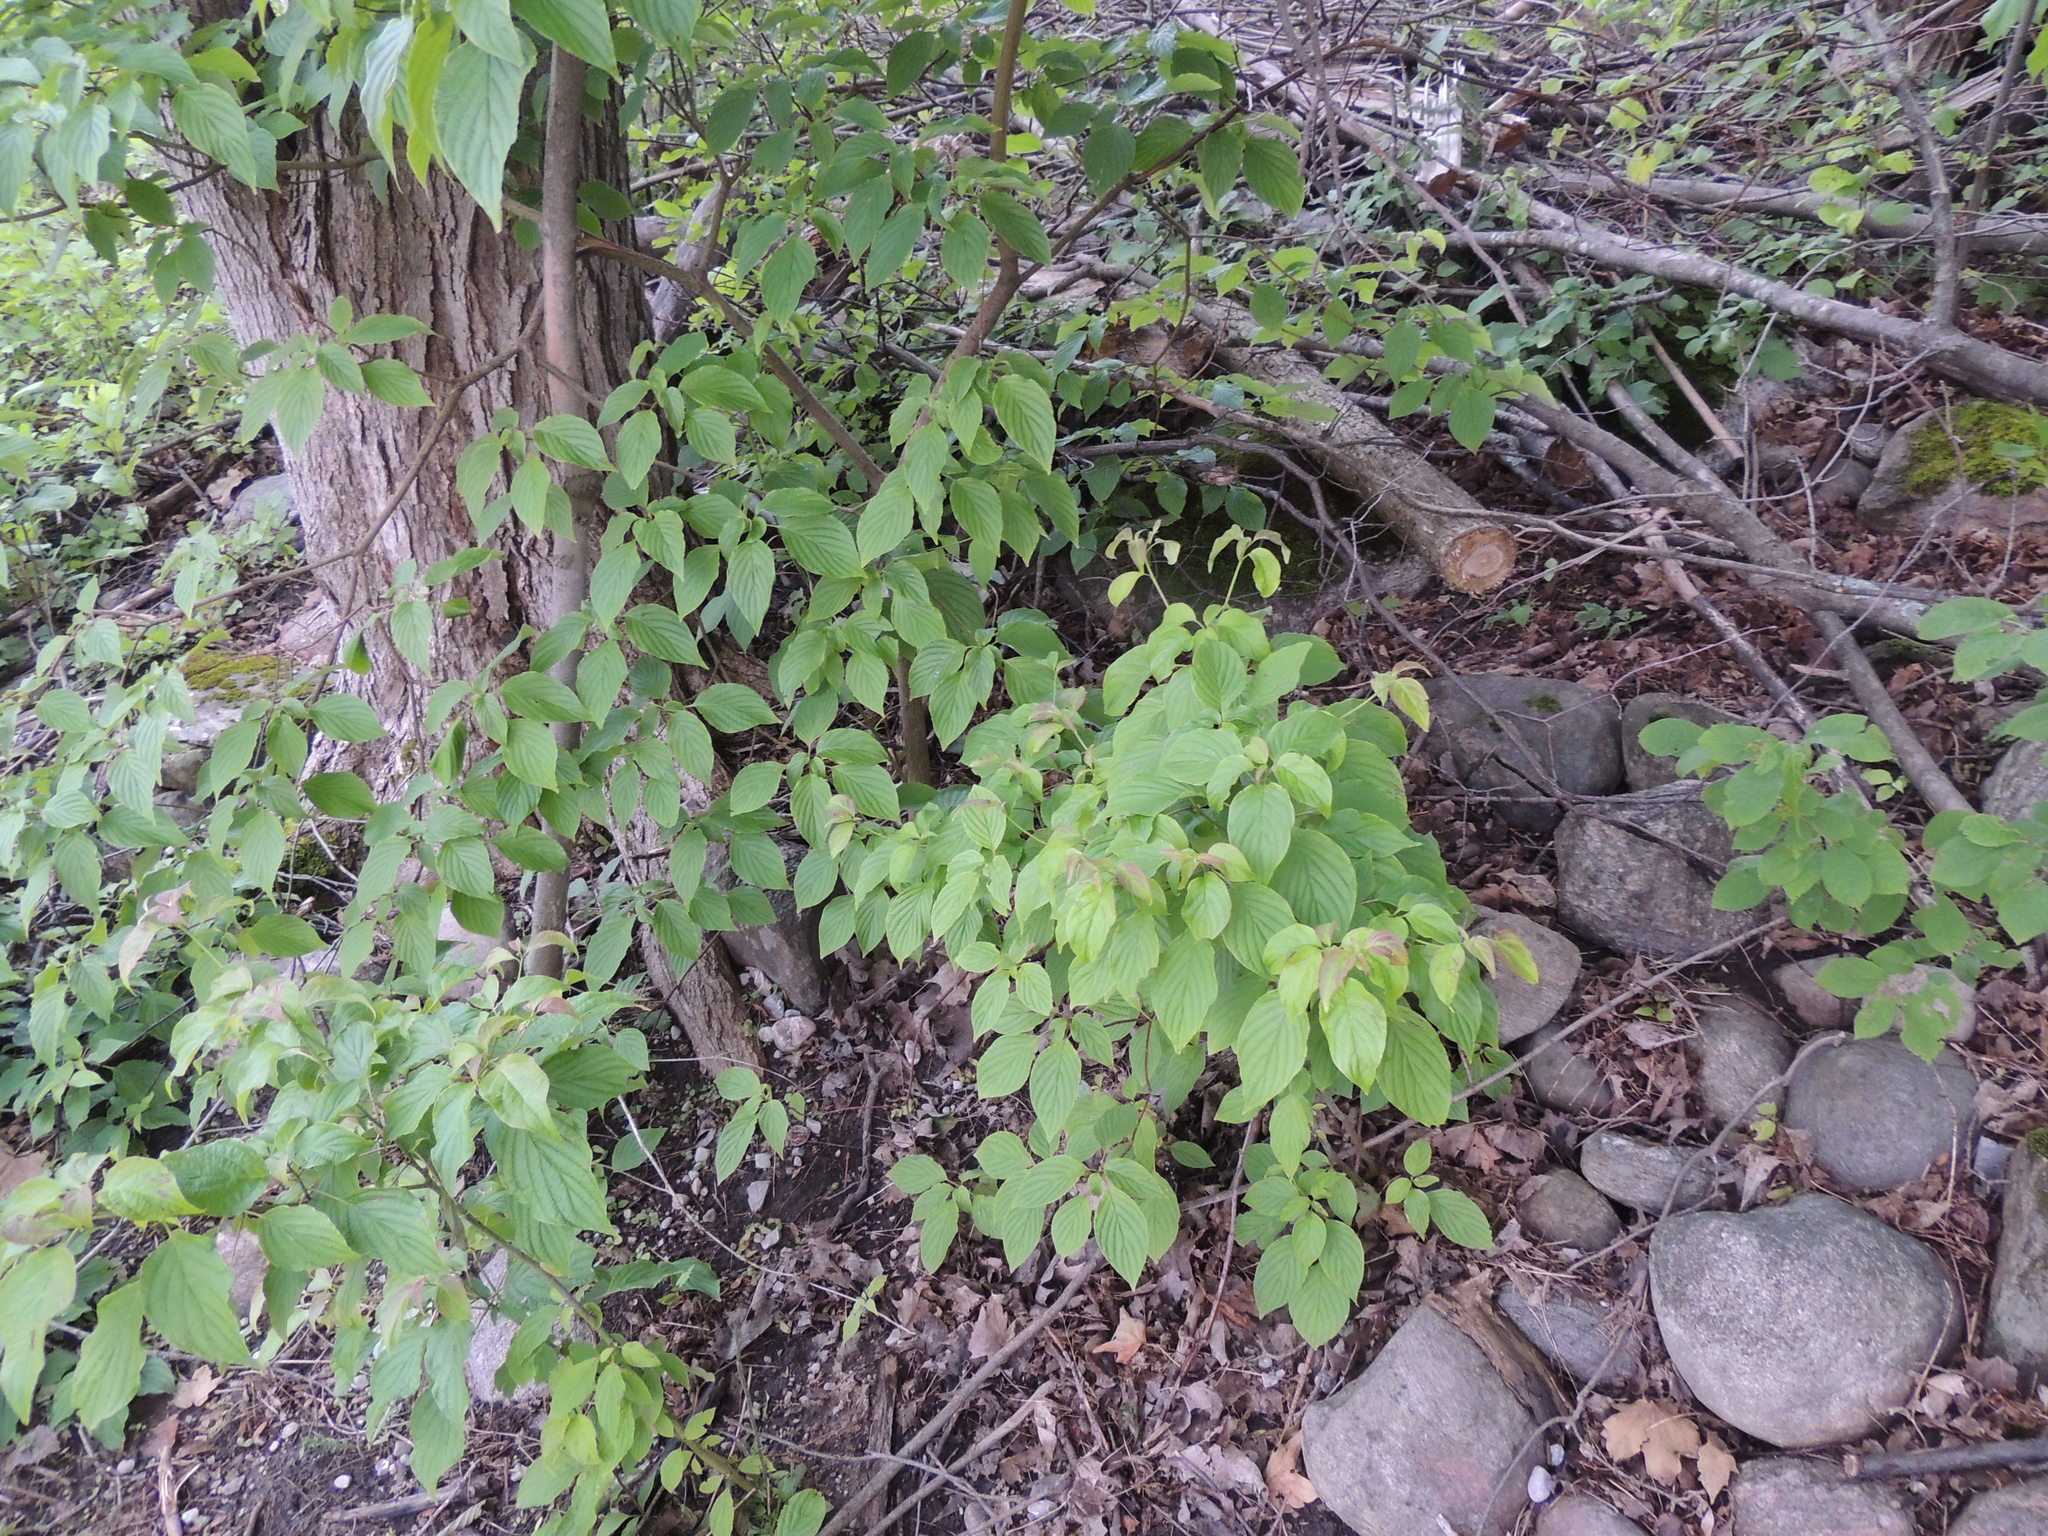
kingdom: Plantae
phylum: Tracheophyta
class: Magnoliopsida
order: Cornales
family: Cornaceae
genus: Cornus
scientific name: Cornus alternifolia
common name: Pagoda dogwood
